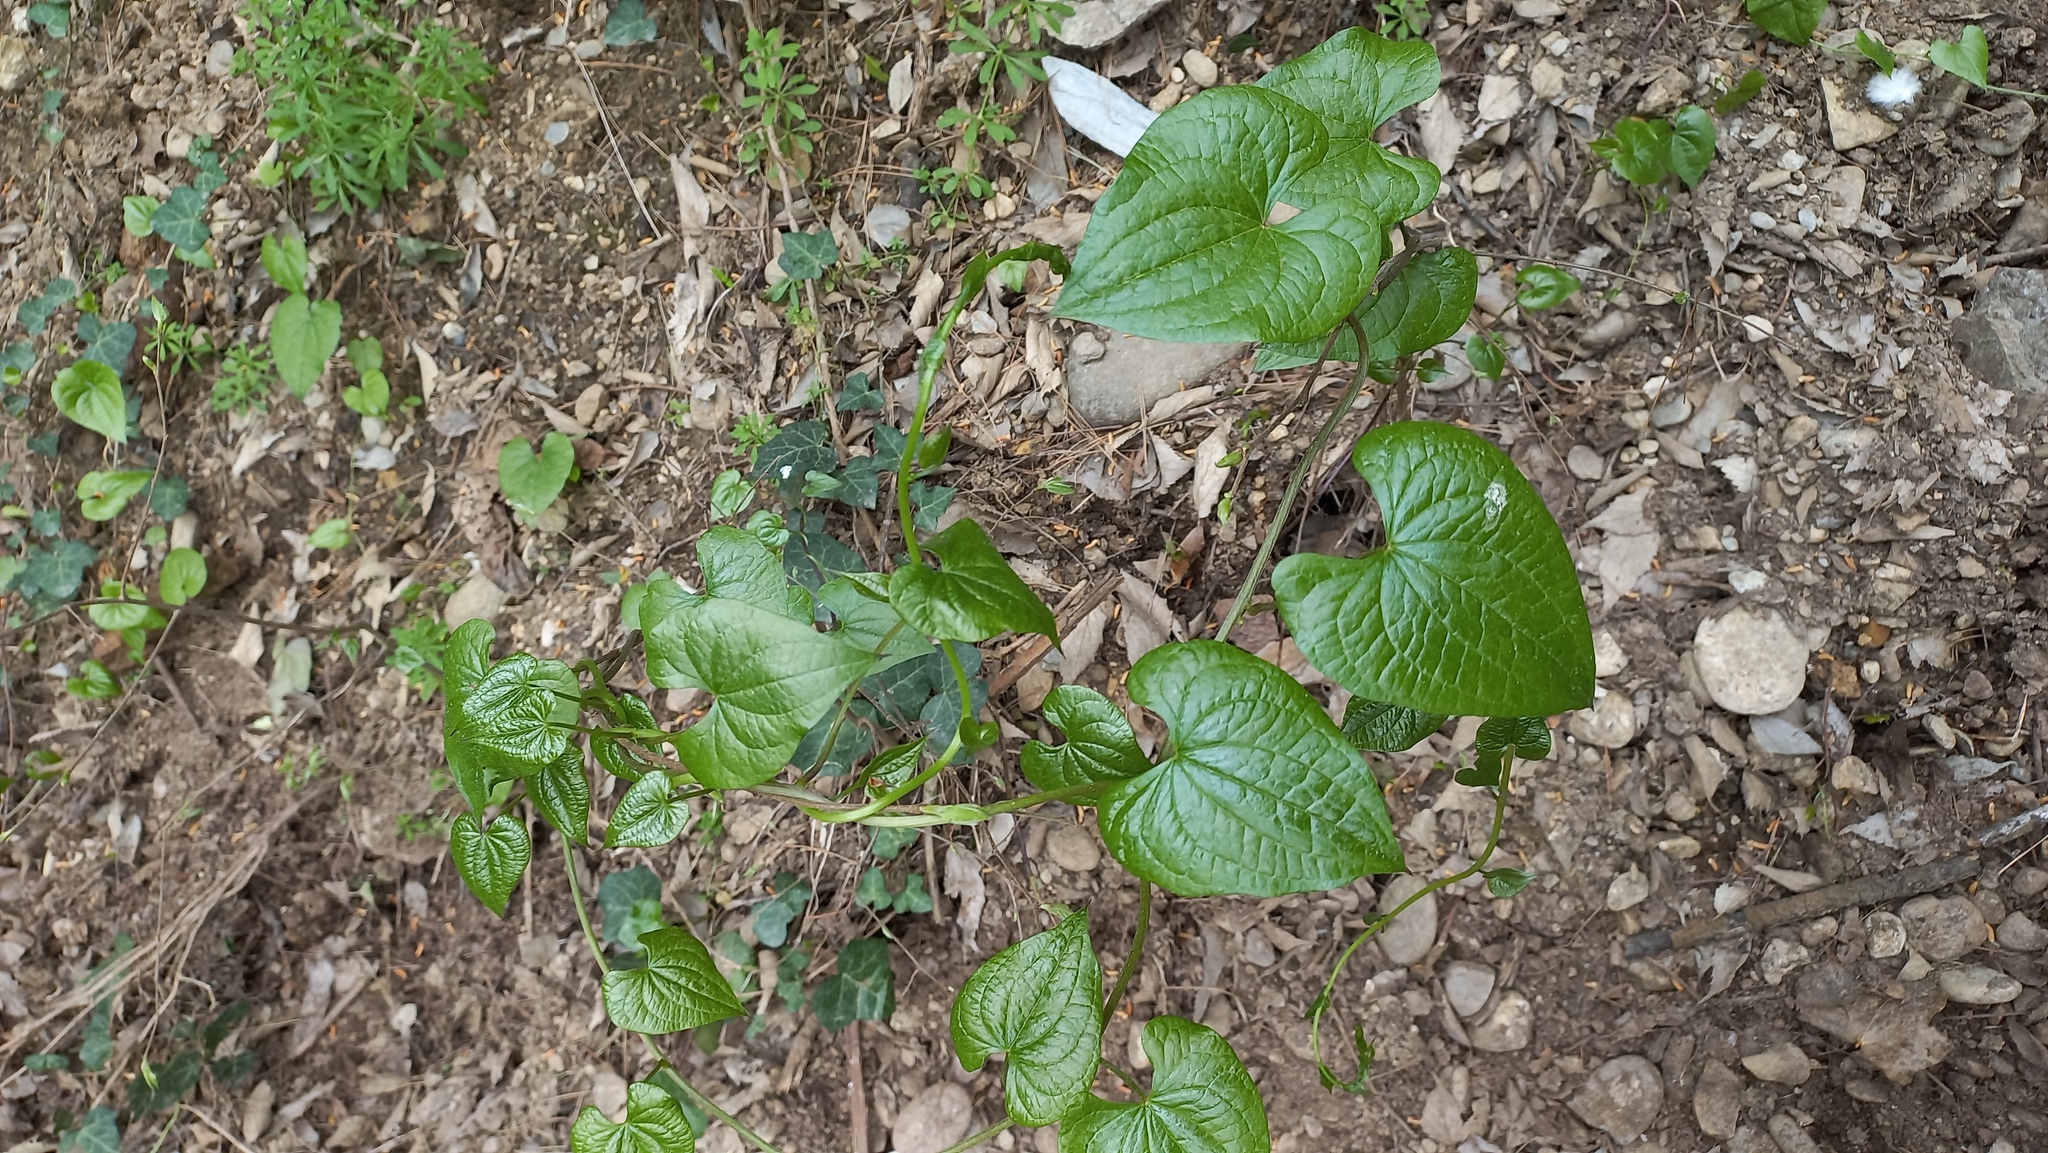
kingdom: Plantae
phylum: Tracheophyta
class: Liliopsida
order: Dioscoreales
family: Dioscoreaceae
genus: Dioscorea
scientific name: Dioscorea communis
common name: Black-bindweed
